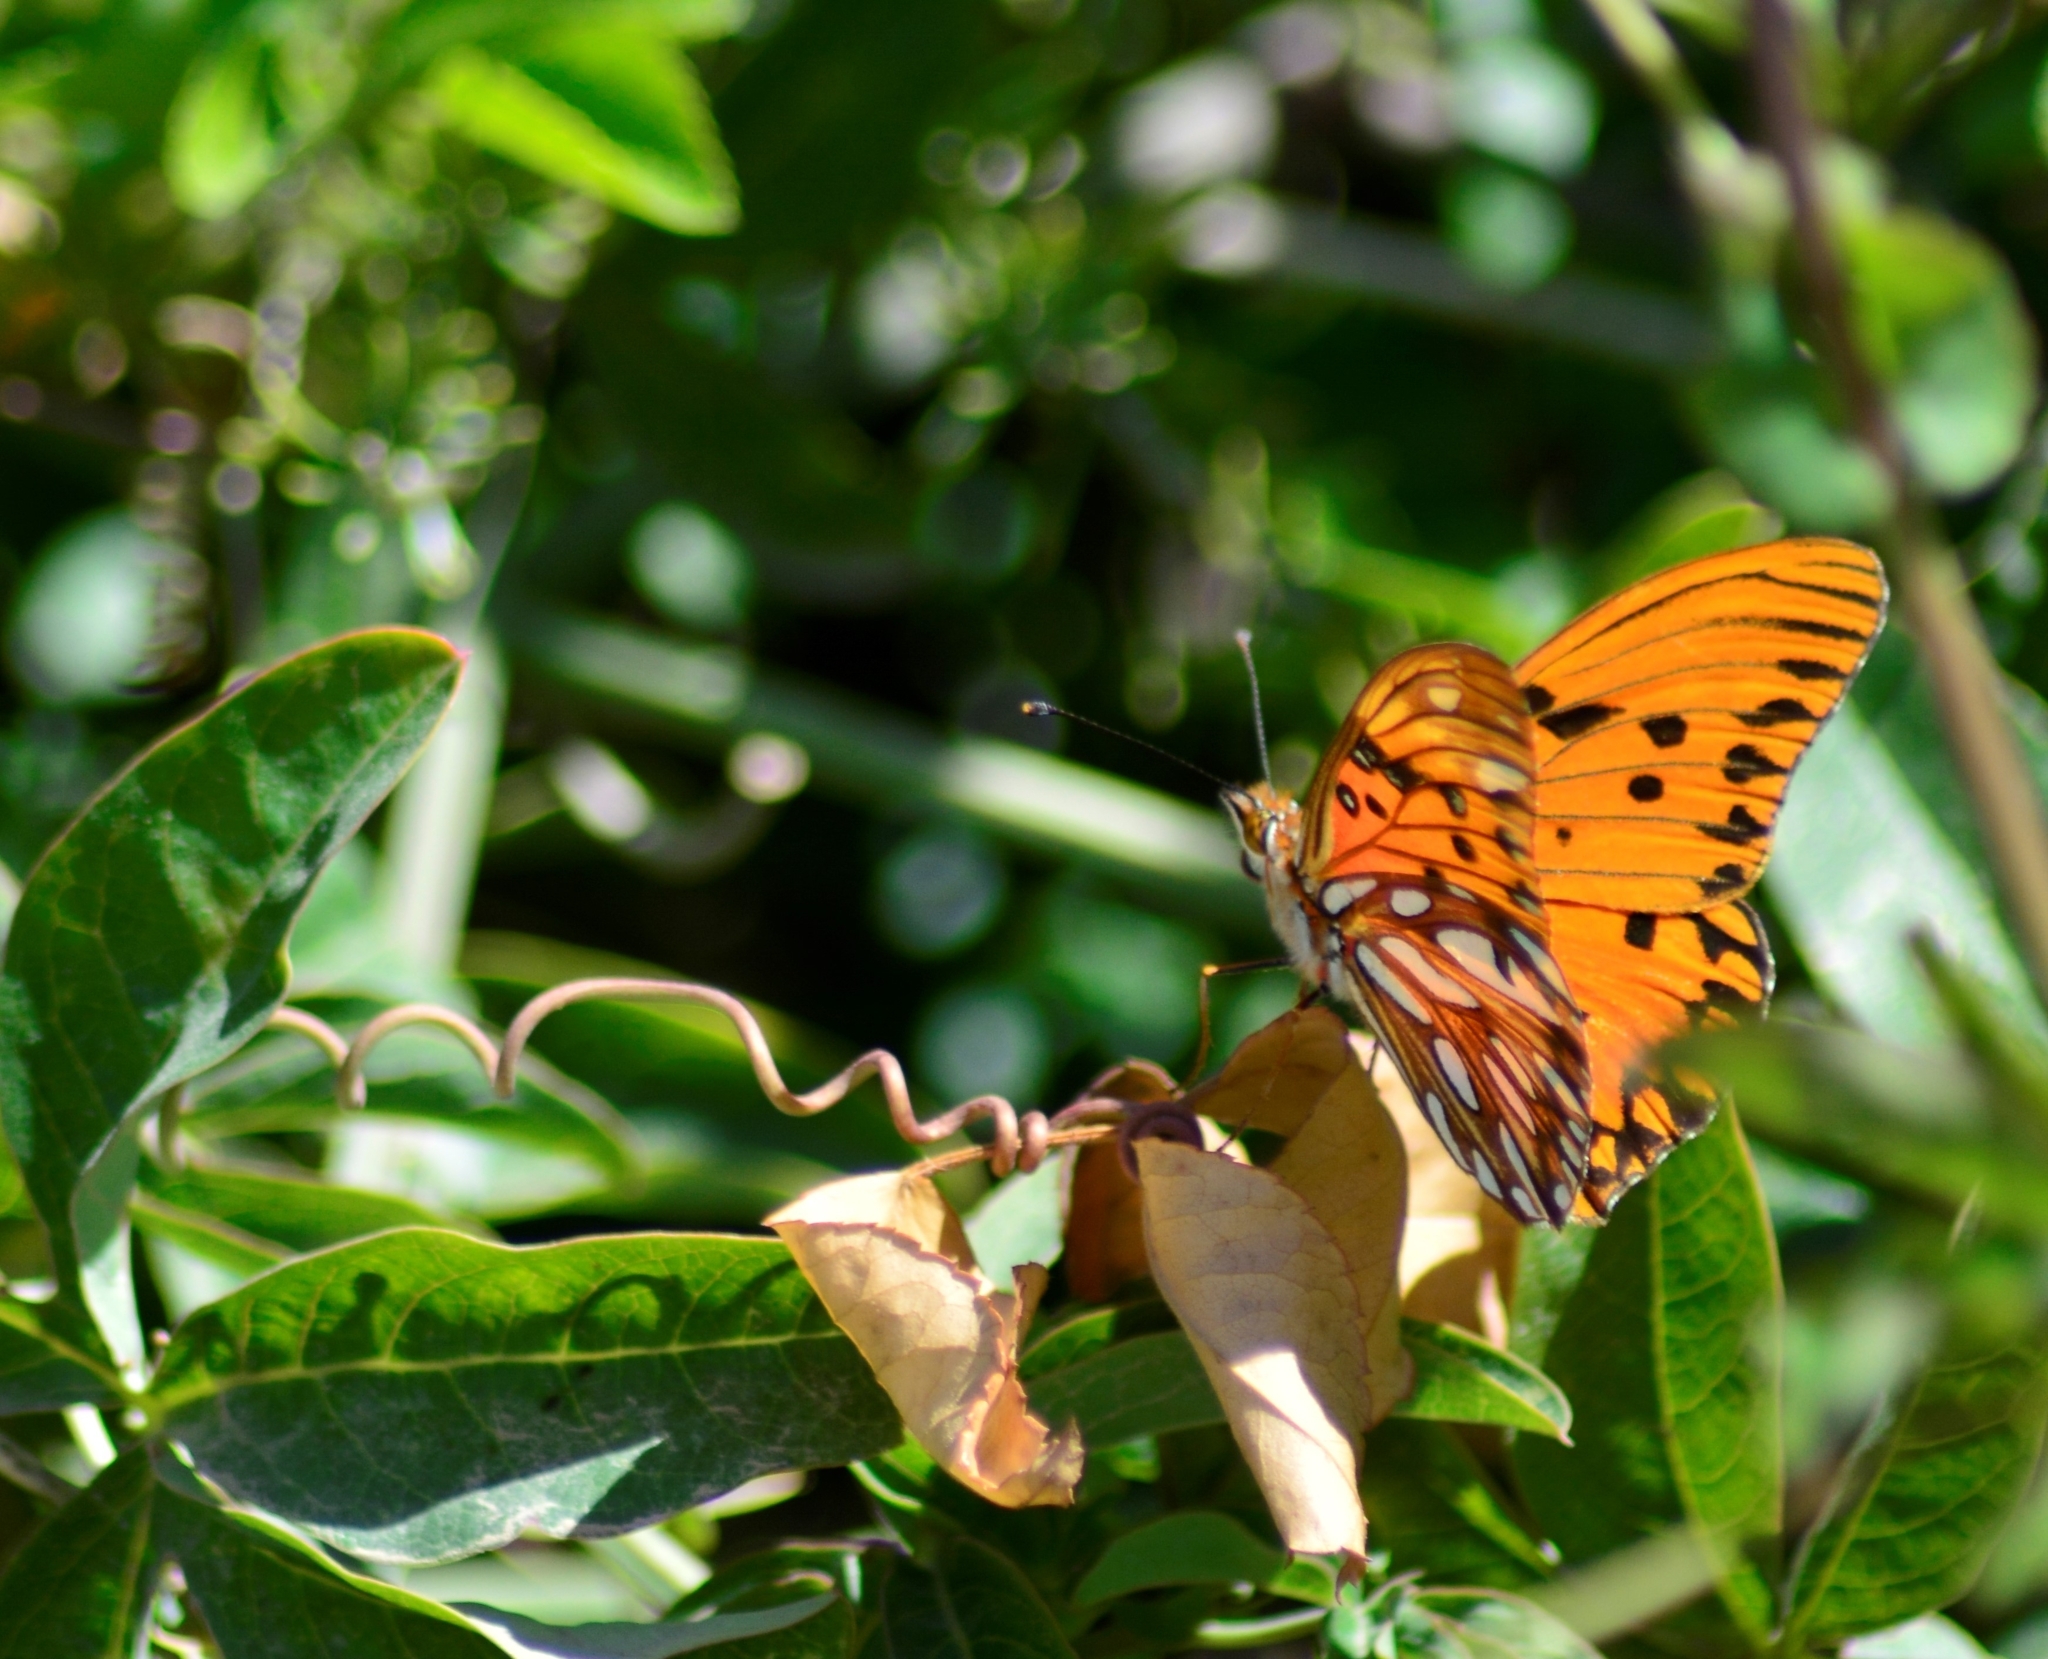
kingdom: Animalia
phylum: Arthropoda
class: Insecta
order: Lepidoptera
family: Nymphalidae
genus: Dione
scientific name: Dione vanillae
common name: Gulf fritillary
